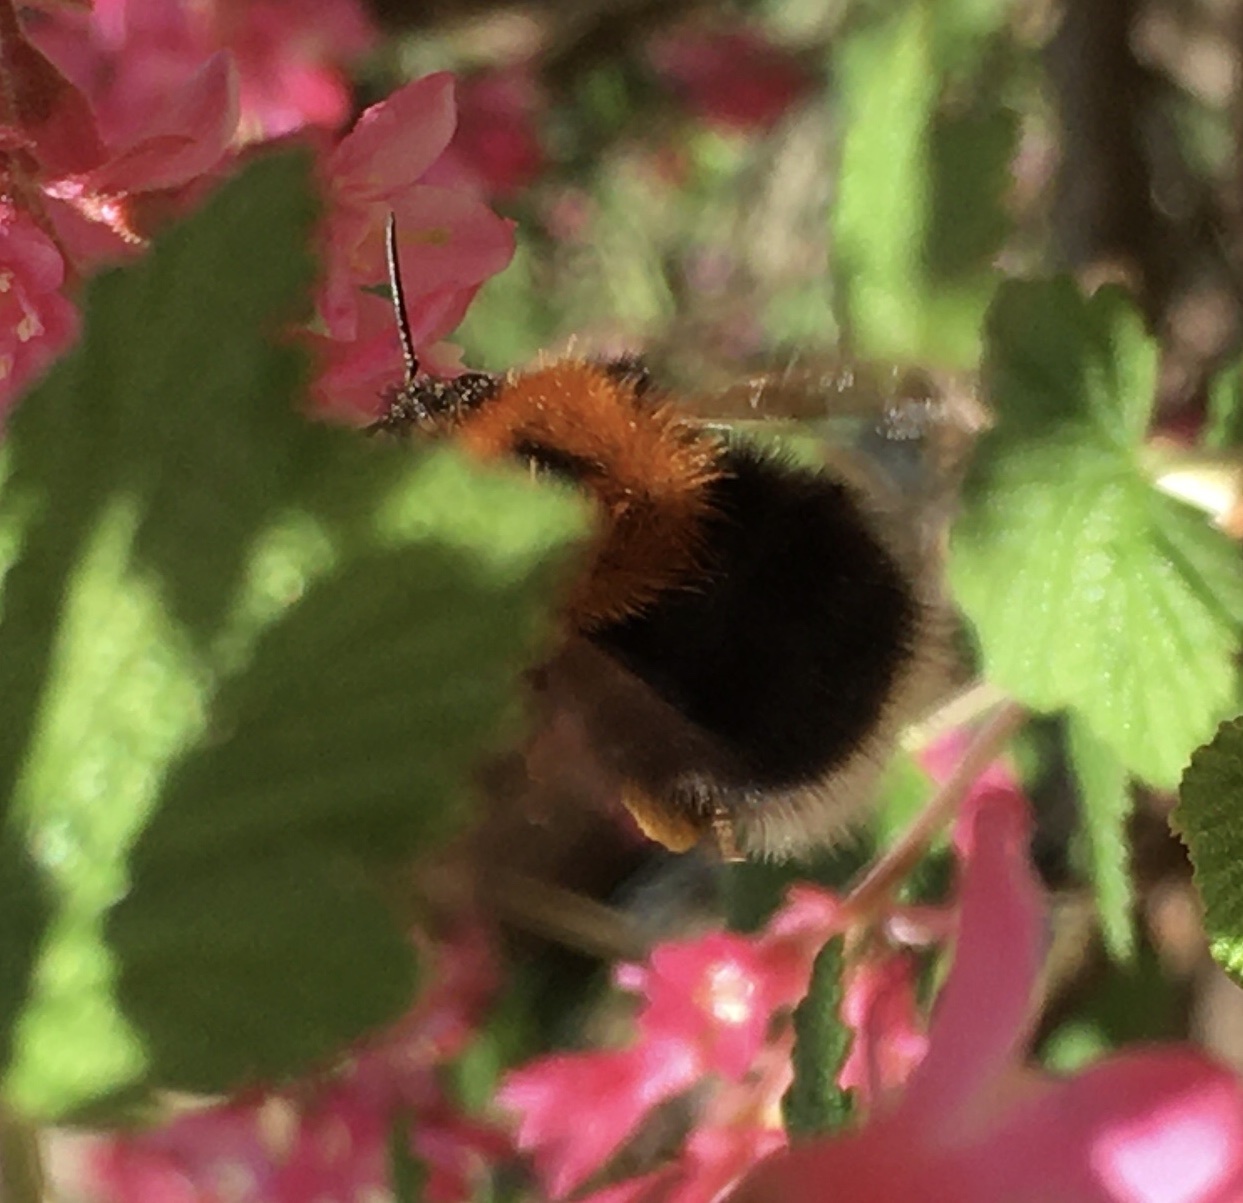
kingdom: Animalia
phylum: Arthropoda
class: Insecta
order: Hymenoptera
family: Apidae
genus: Bombus
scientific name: Bombus hypnorum
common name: New garden bumblebee
